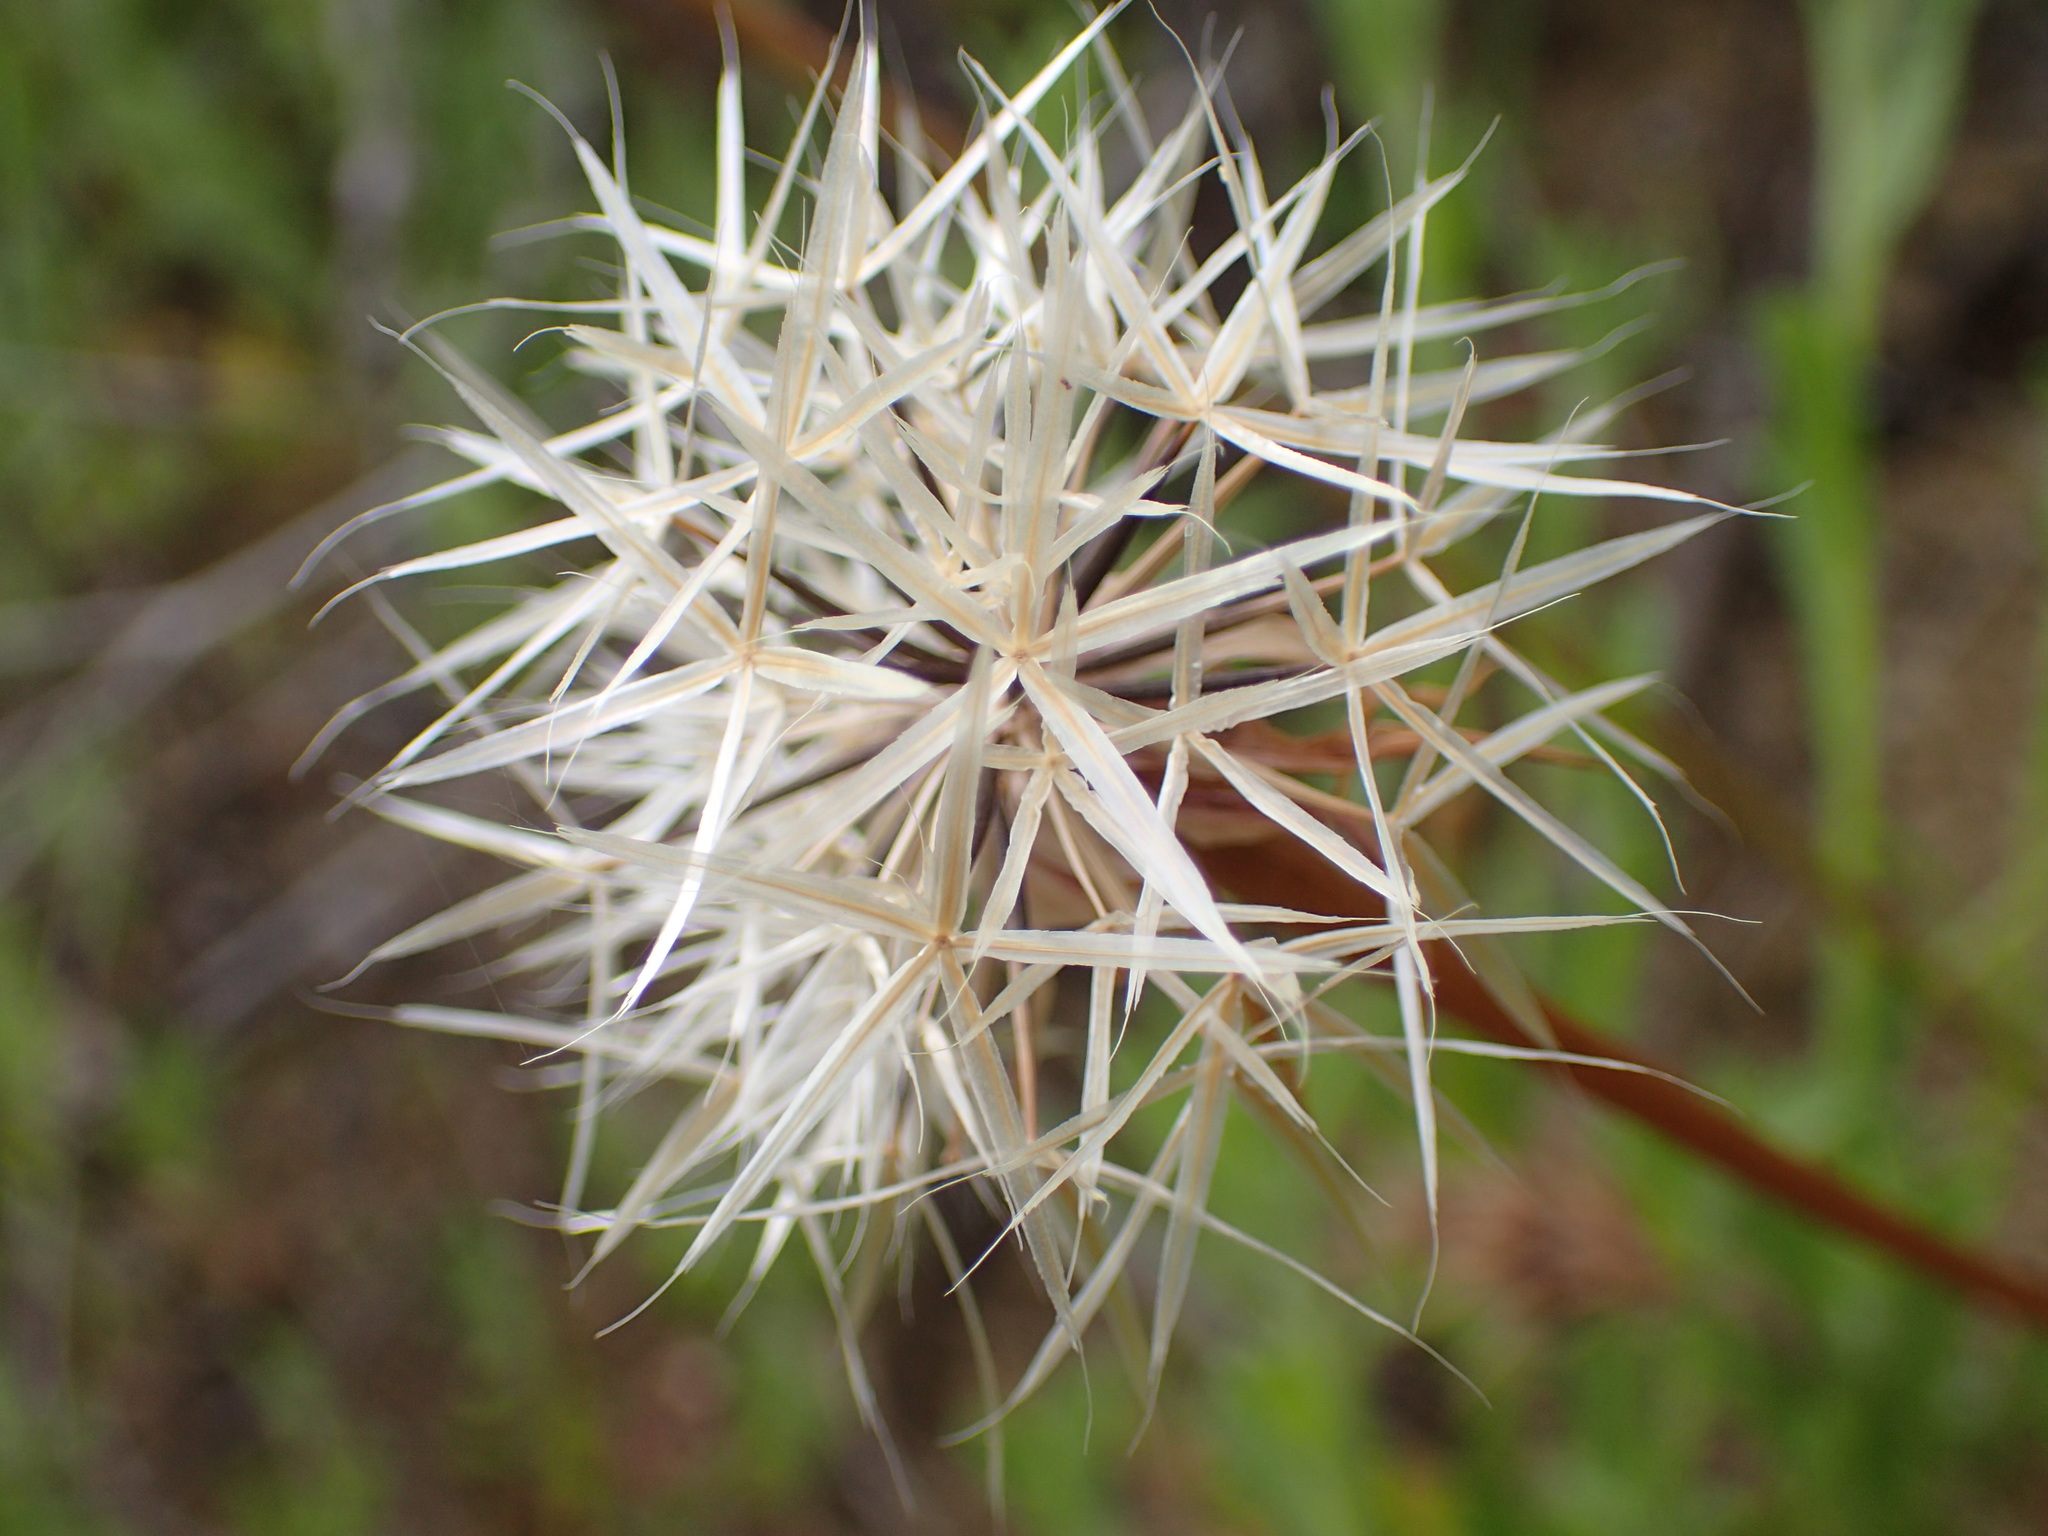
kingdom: Plantae
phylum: Tracheophyta
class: Magnoliopsida
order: Asterales
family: Asteraceae
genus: Microseris
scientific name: Microseris lindleyi
